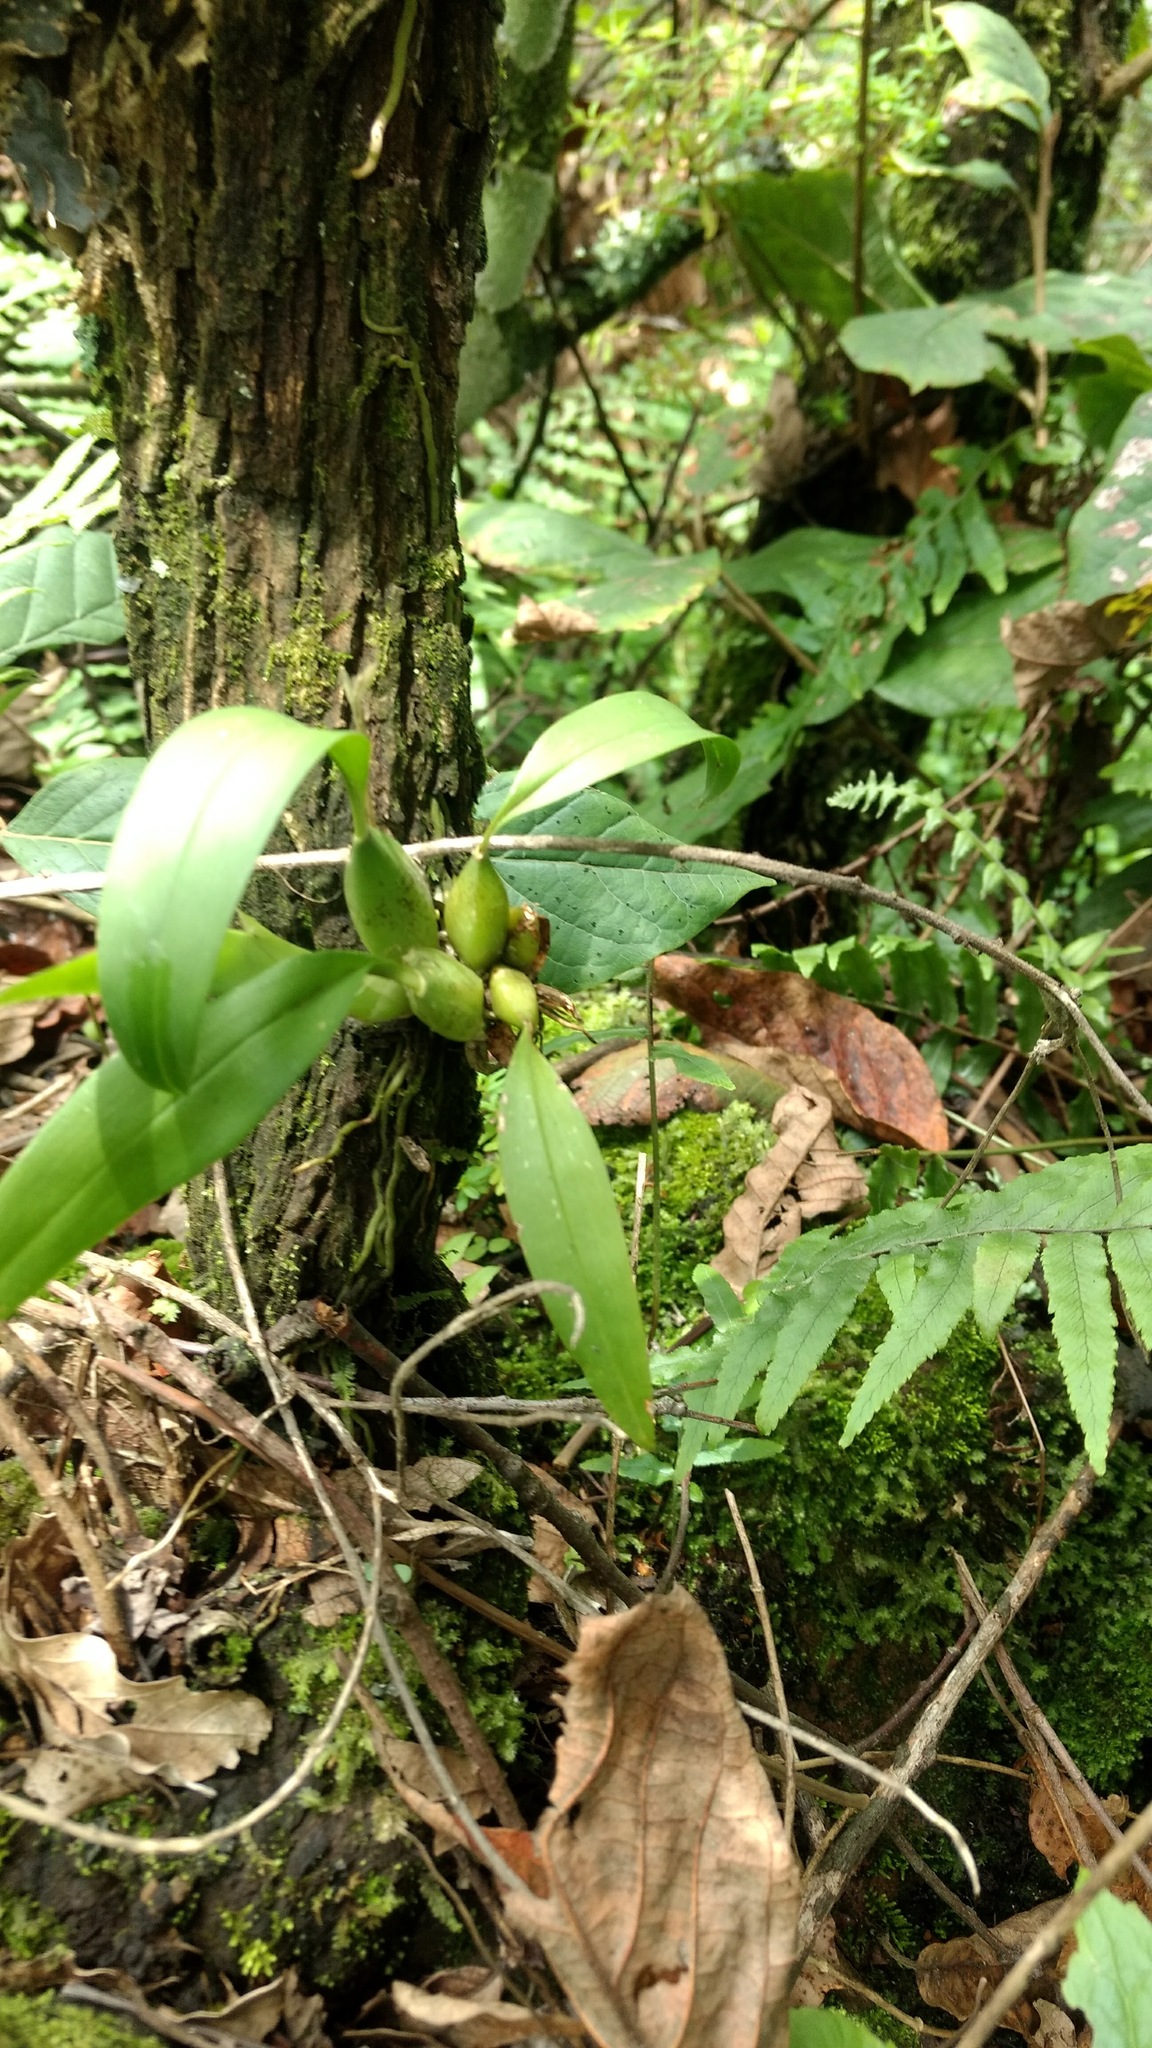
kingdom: Plantae
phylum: Tracheophyta
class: Liliopsida
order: Asparagales
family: Orchidaceae
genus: Rhynchostele
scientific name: Rhynchostele maculata
